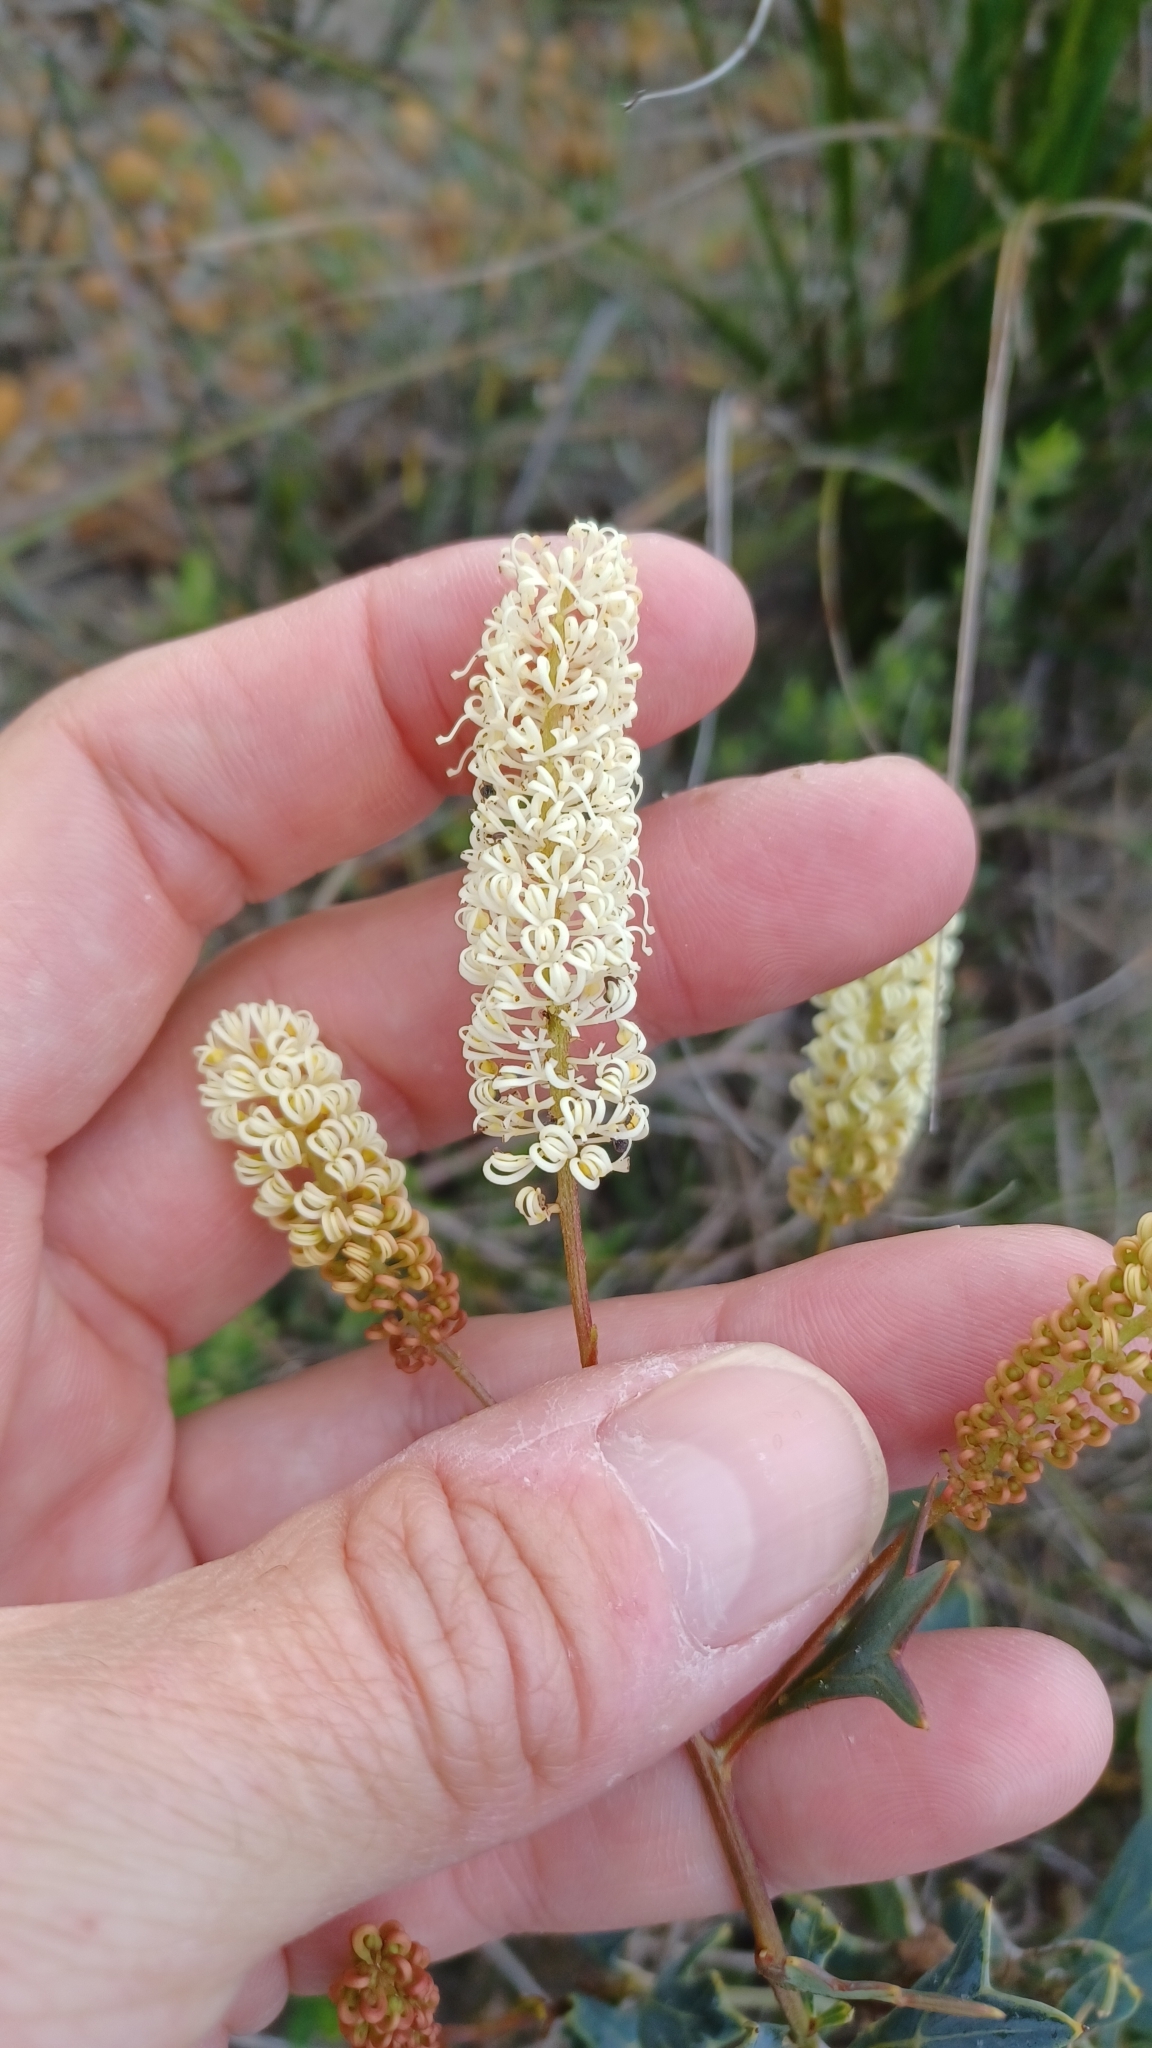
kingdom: Plantae
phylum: Tracheophyta
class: Magnoliopsida
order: Proteales
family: Proteaceae
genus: Grevillea
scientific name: Grevillea synaphea
